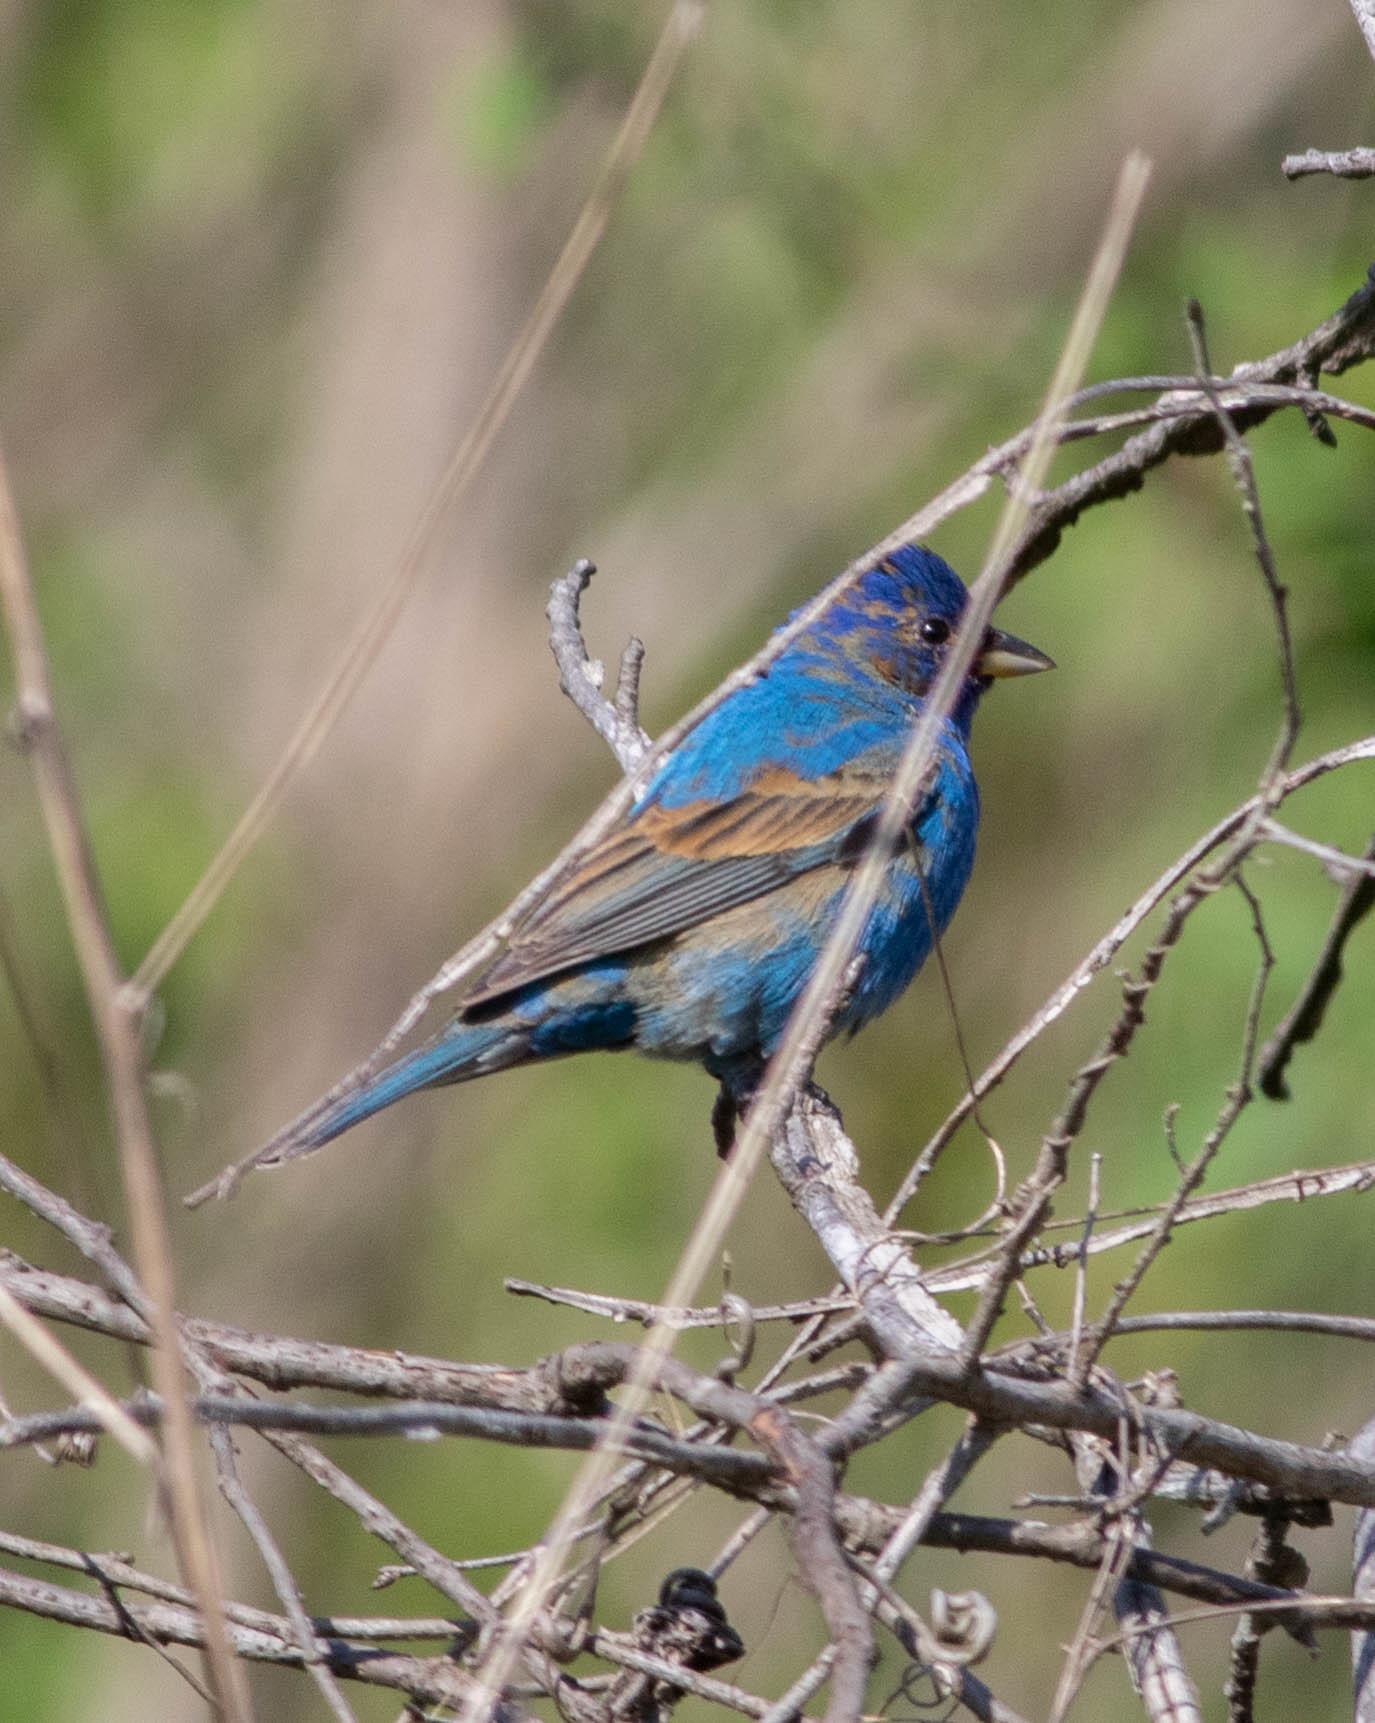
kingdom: Animalia
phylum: Chordata
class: Aves
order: Passeriformes
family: Cardinalidae
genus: Passerina
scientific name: Passerina cyanea
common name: Indigo bunting
